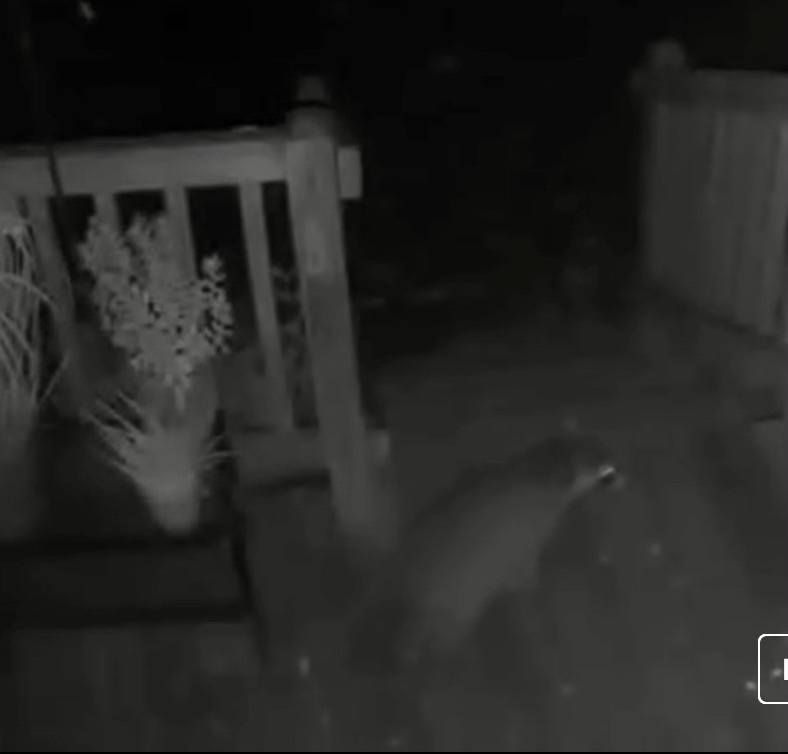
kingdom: Animalia
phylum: Chordata
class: Mammalia
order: Carnivora
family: Procyonidae
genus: Procyon
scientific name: Procyon lotor
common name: Raccoon
